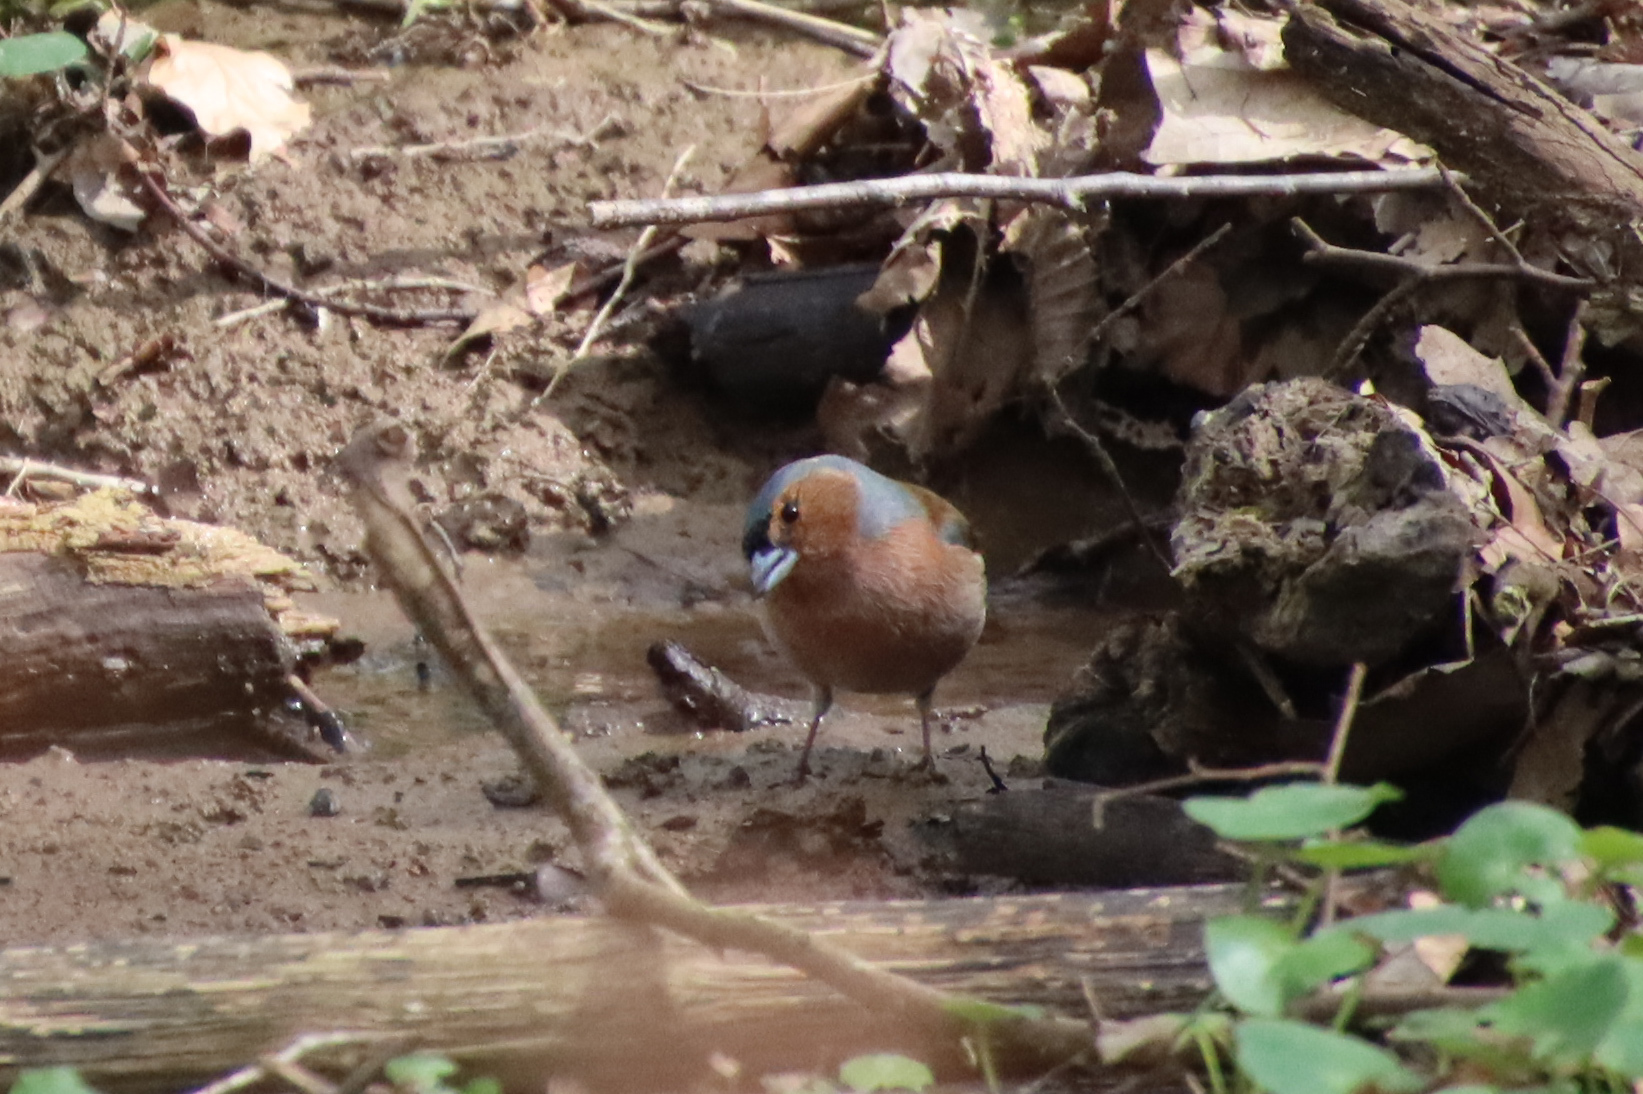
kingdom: Animalia
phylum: Chordata
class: Aves
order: Passeriformes
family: Fringillidae
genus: Fringilla
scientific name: Fringilla coelebs
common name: Common chaffinch
